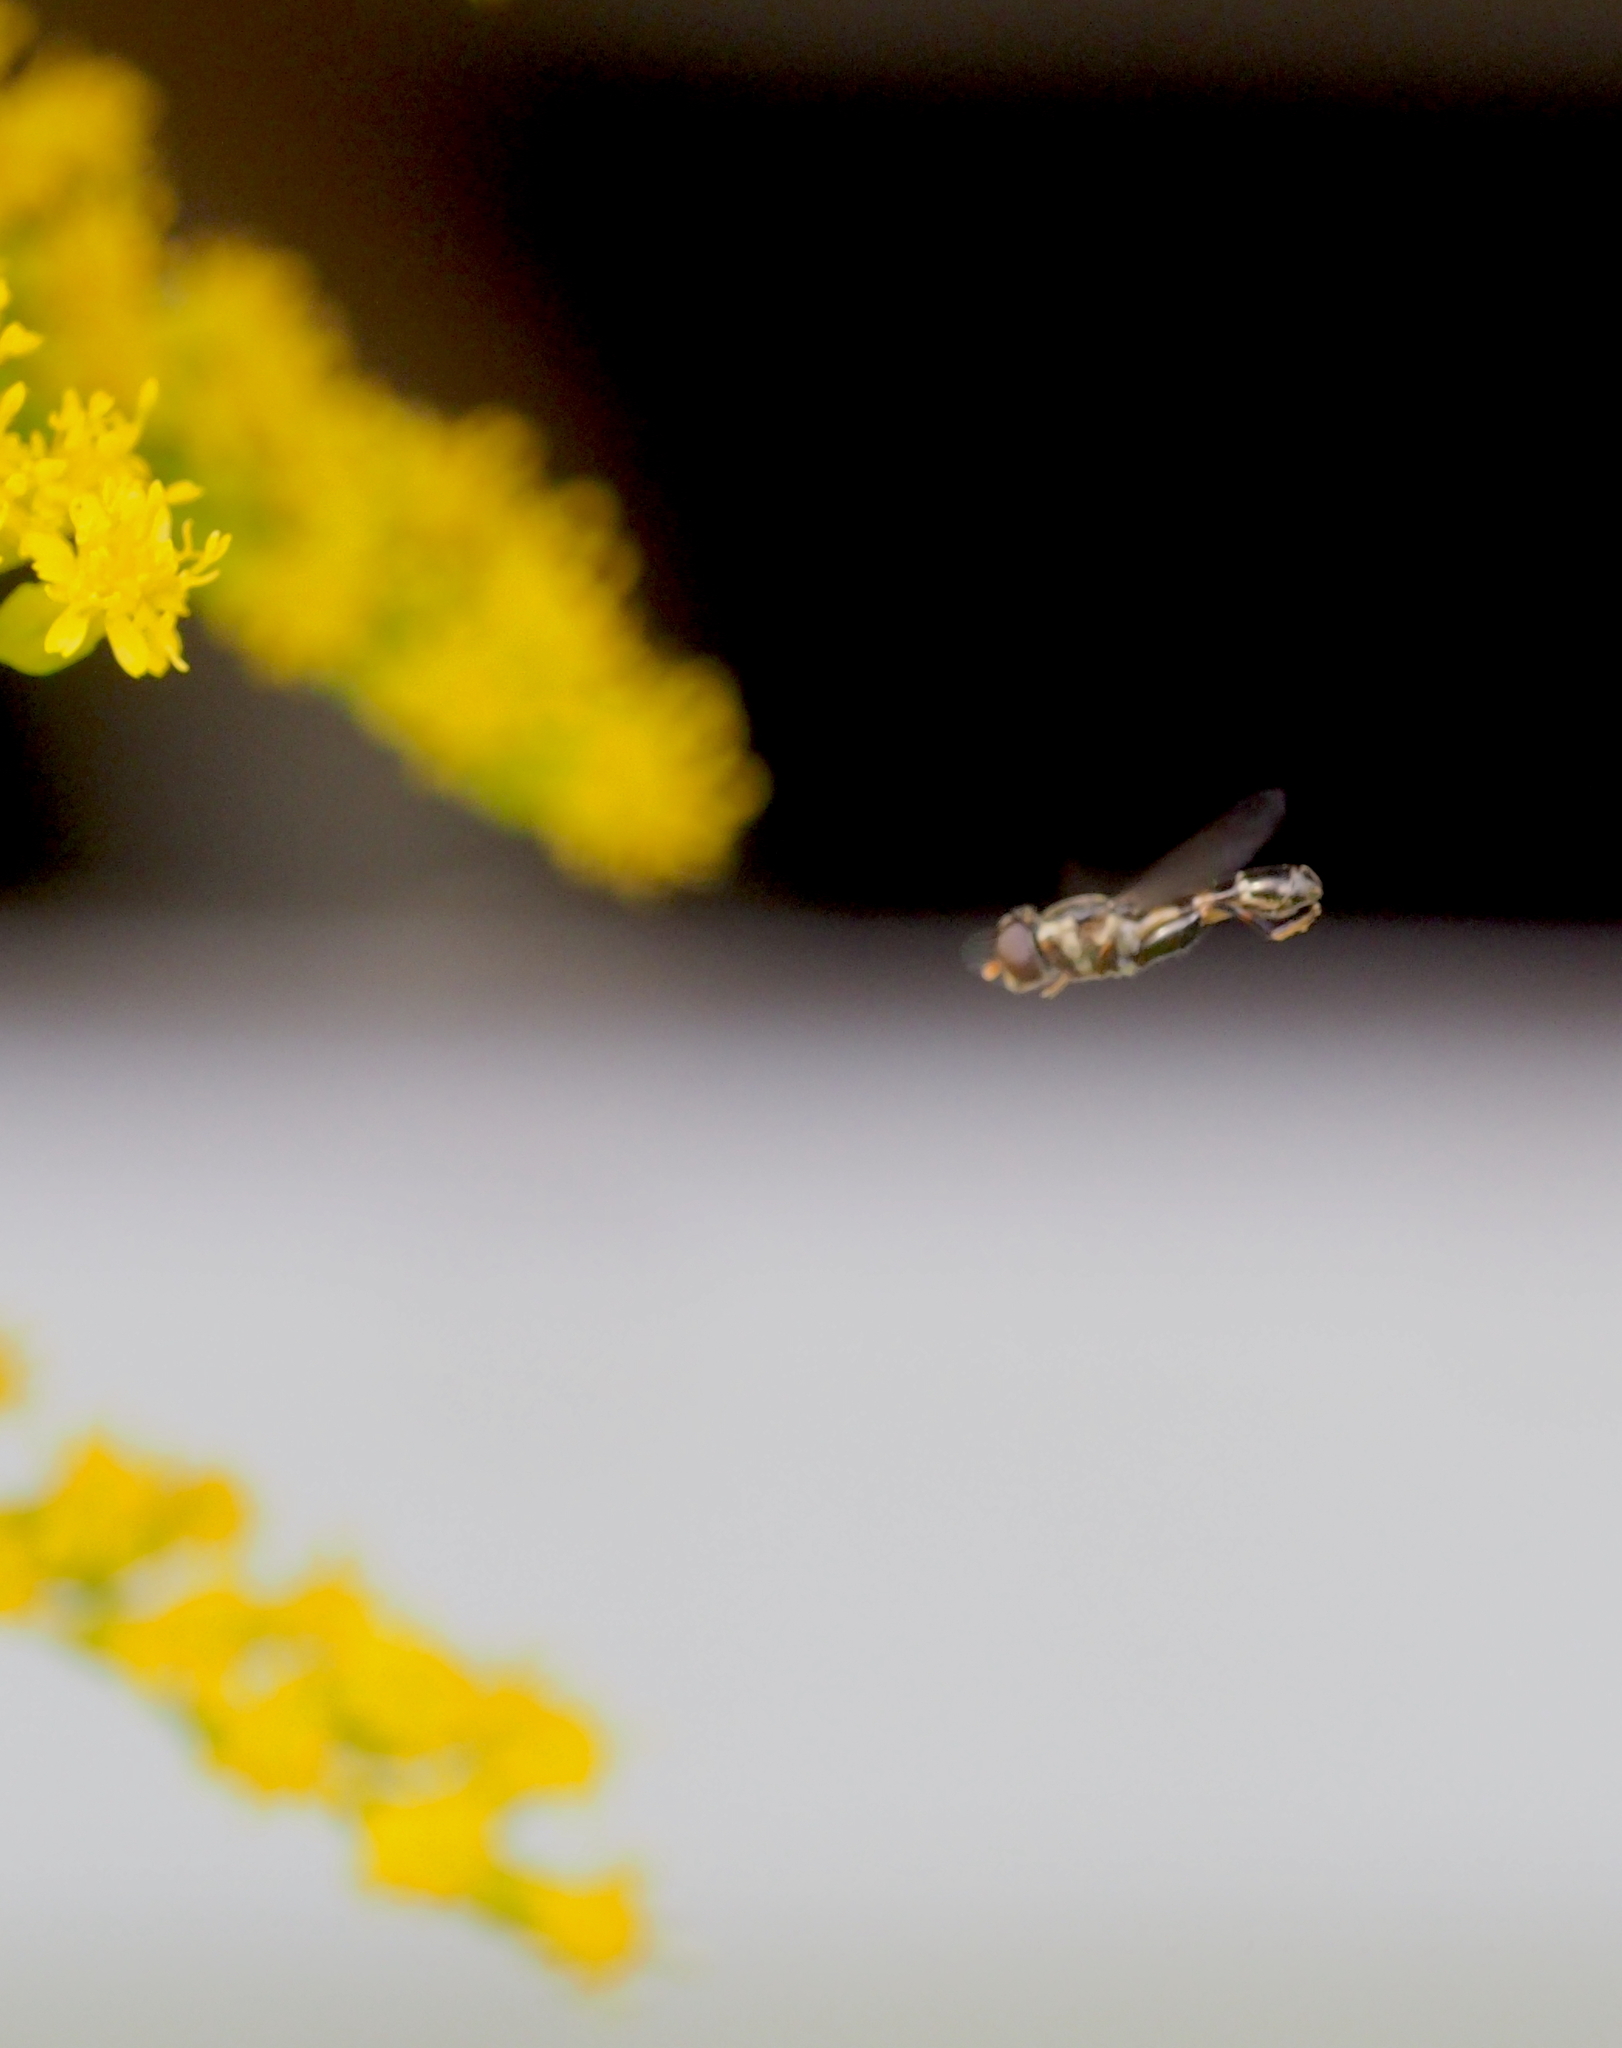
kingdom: Animalia
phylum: Arthropoda
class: Insecta
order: Diptera
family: Syrphidae
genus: Syritta
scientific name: Syritta pipiens
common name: Hover fly
